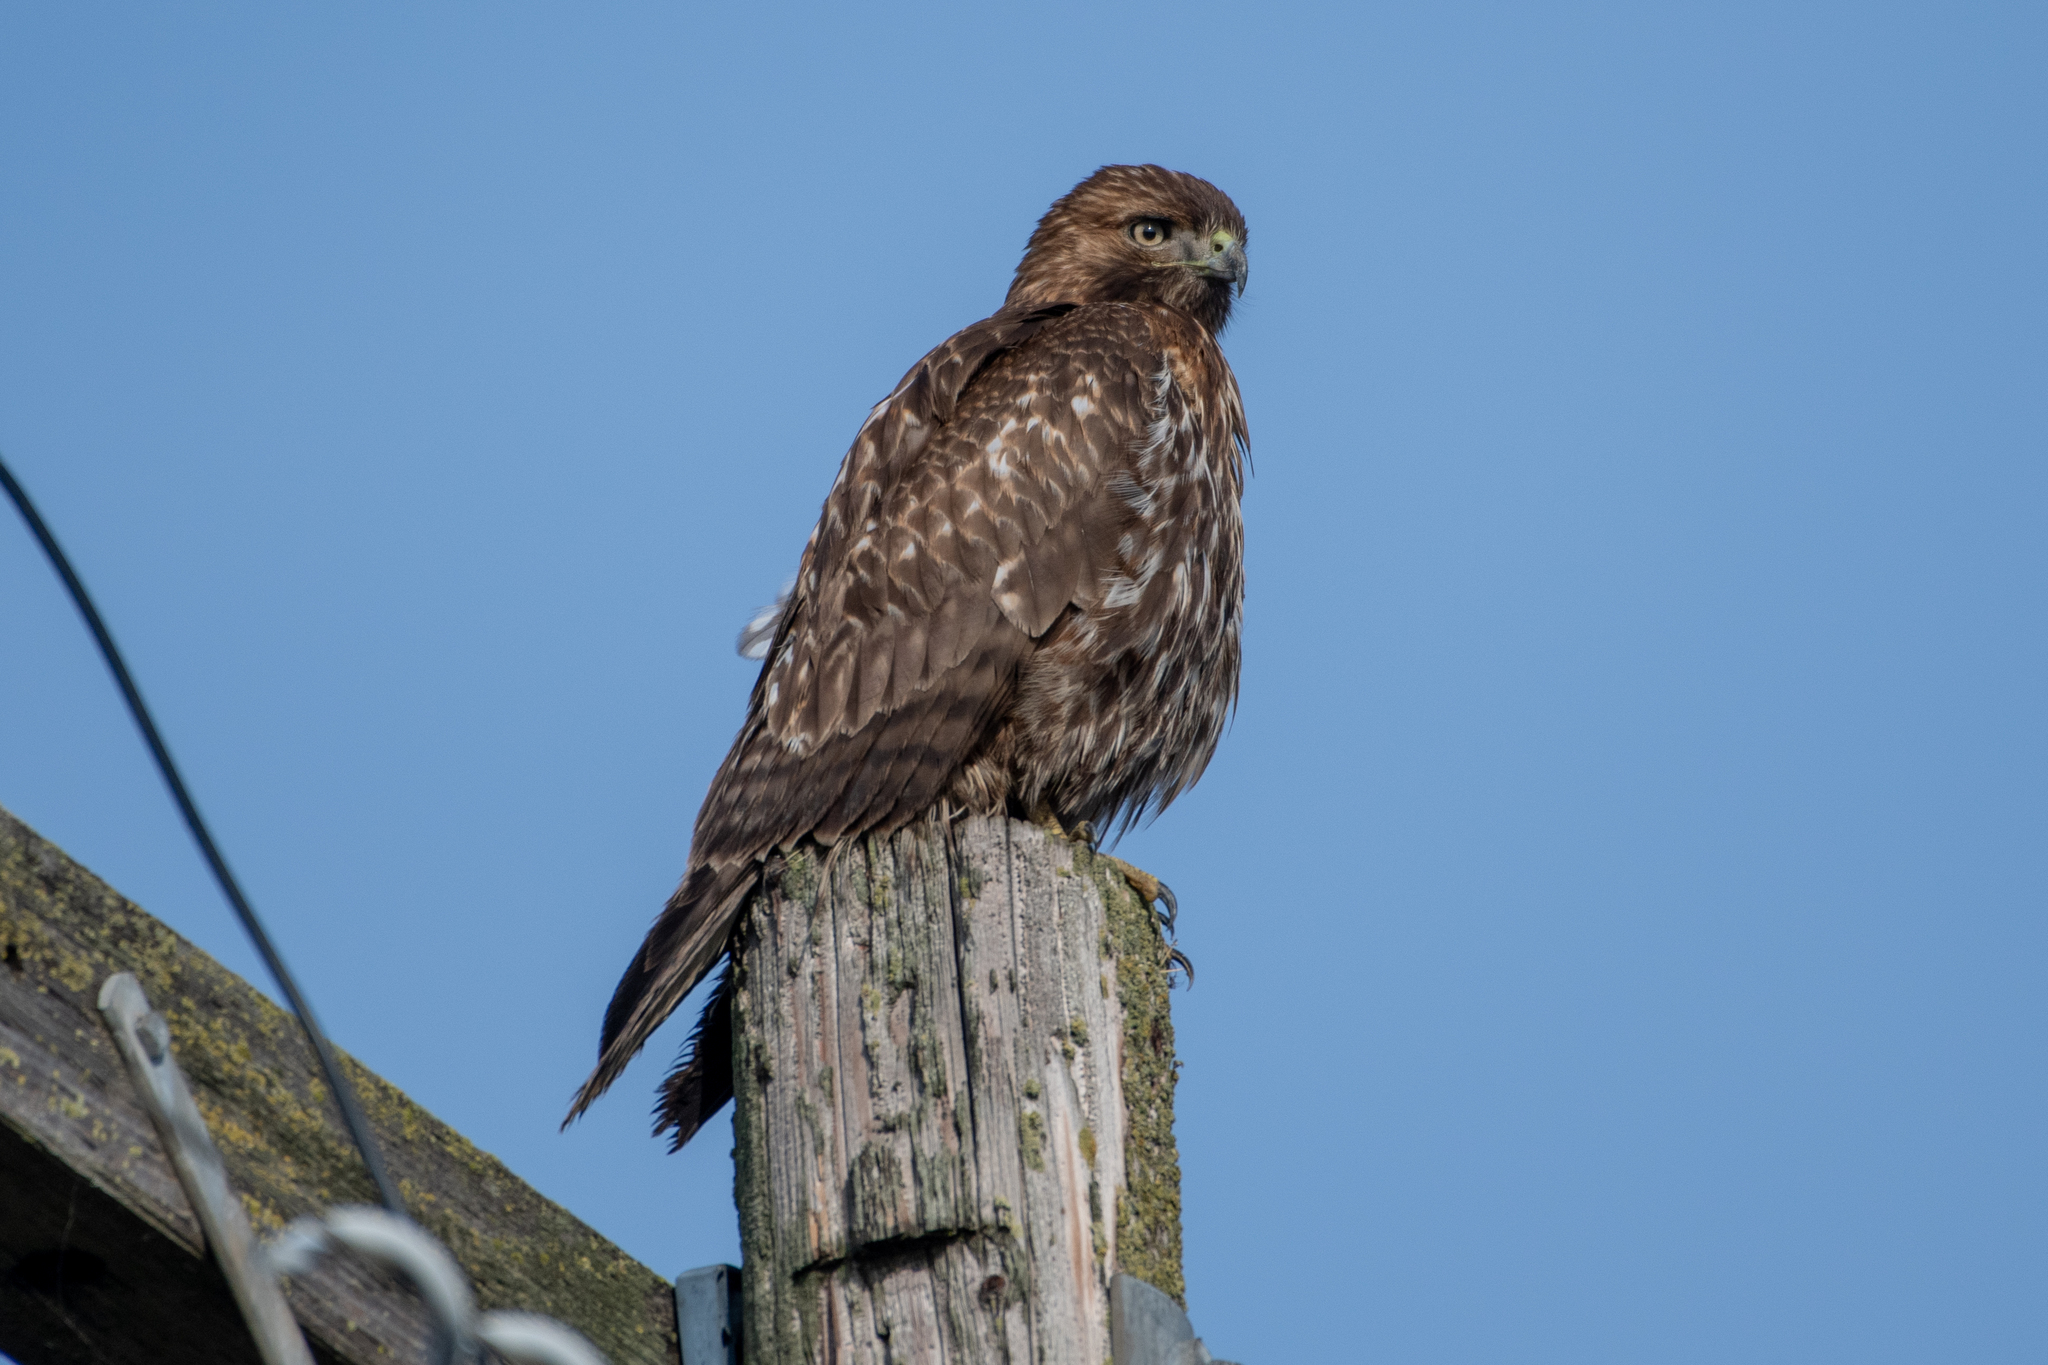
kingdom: Animalia
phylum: Chordata
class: Aves
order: Accipitriformes
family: Accipitridae
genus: Buteo
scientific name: Buteo jamaicensis
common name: Red-tailed hawk
